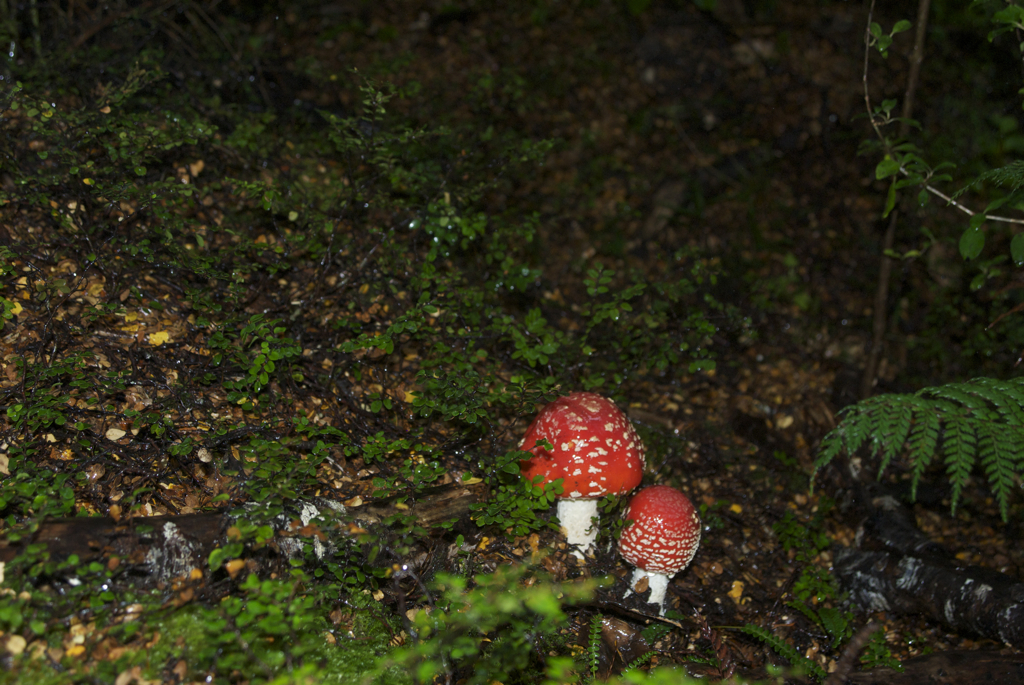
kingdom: Fungi
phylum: Basidiomycota
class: Agaricomycetes
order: Agaricales
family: Amanitaceae
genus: Amanita
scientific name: Amanita muscaria
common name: Fly agaric
